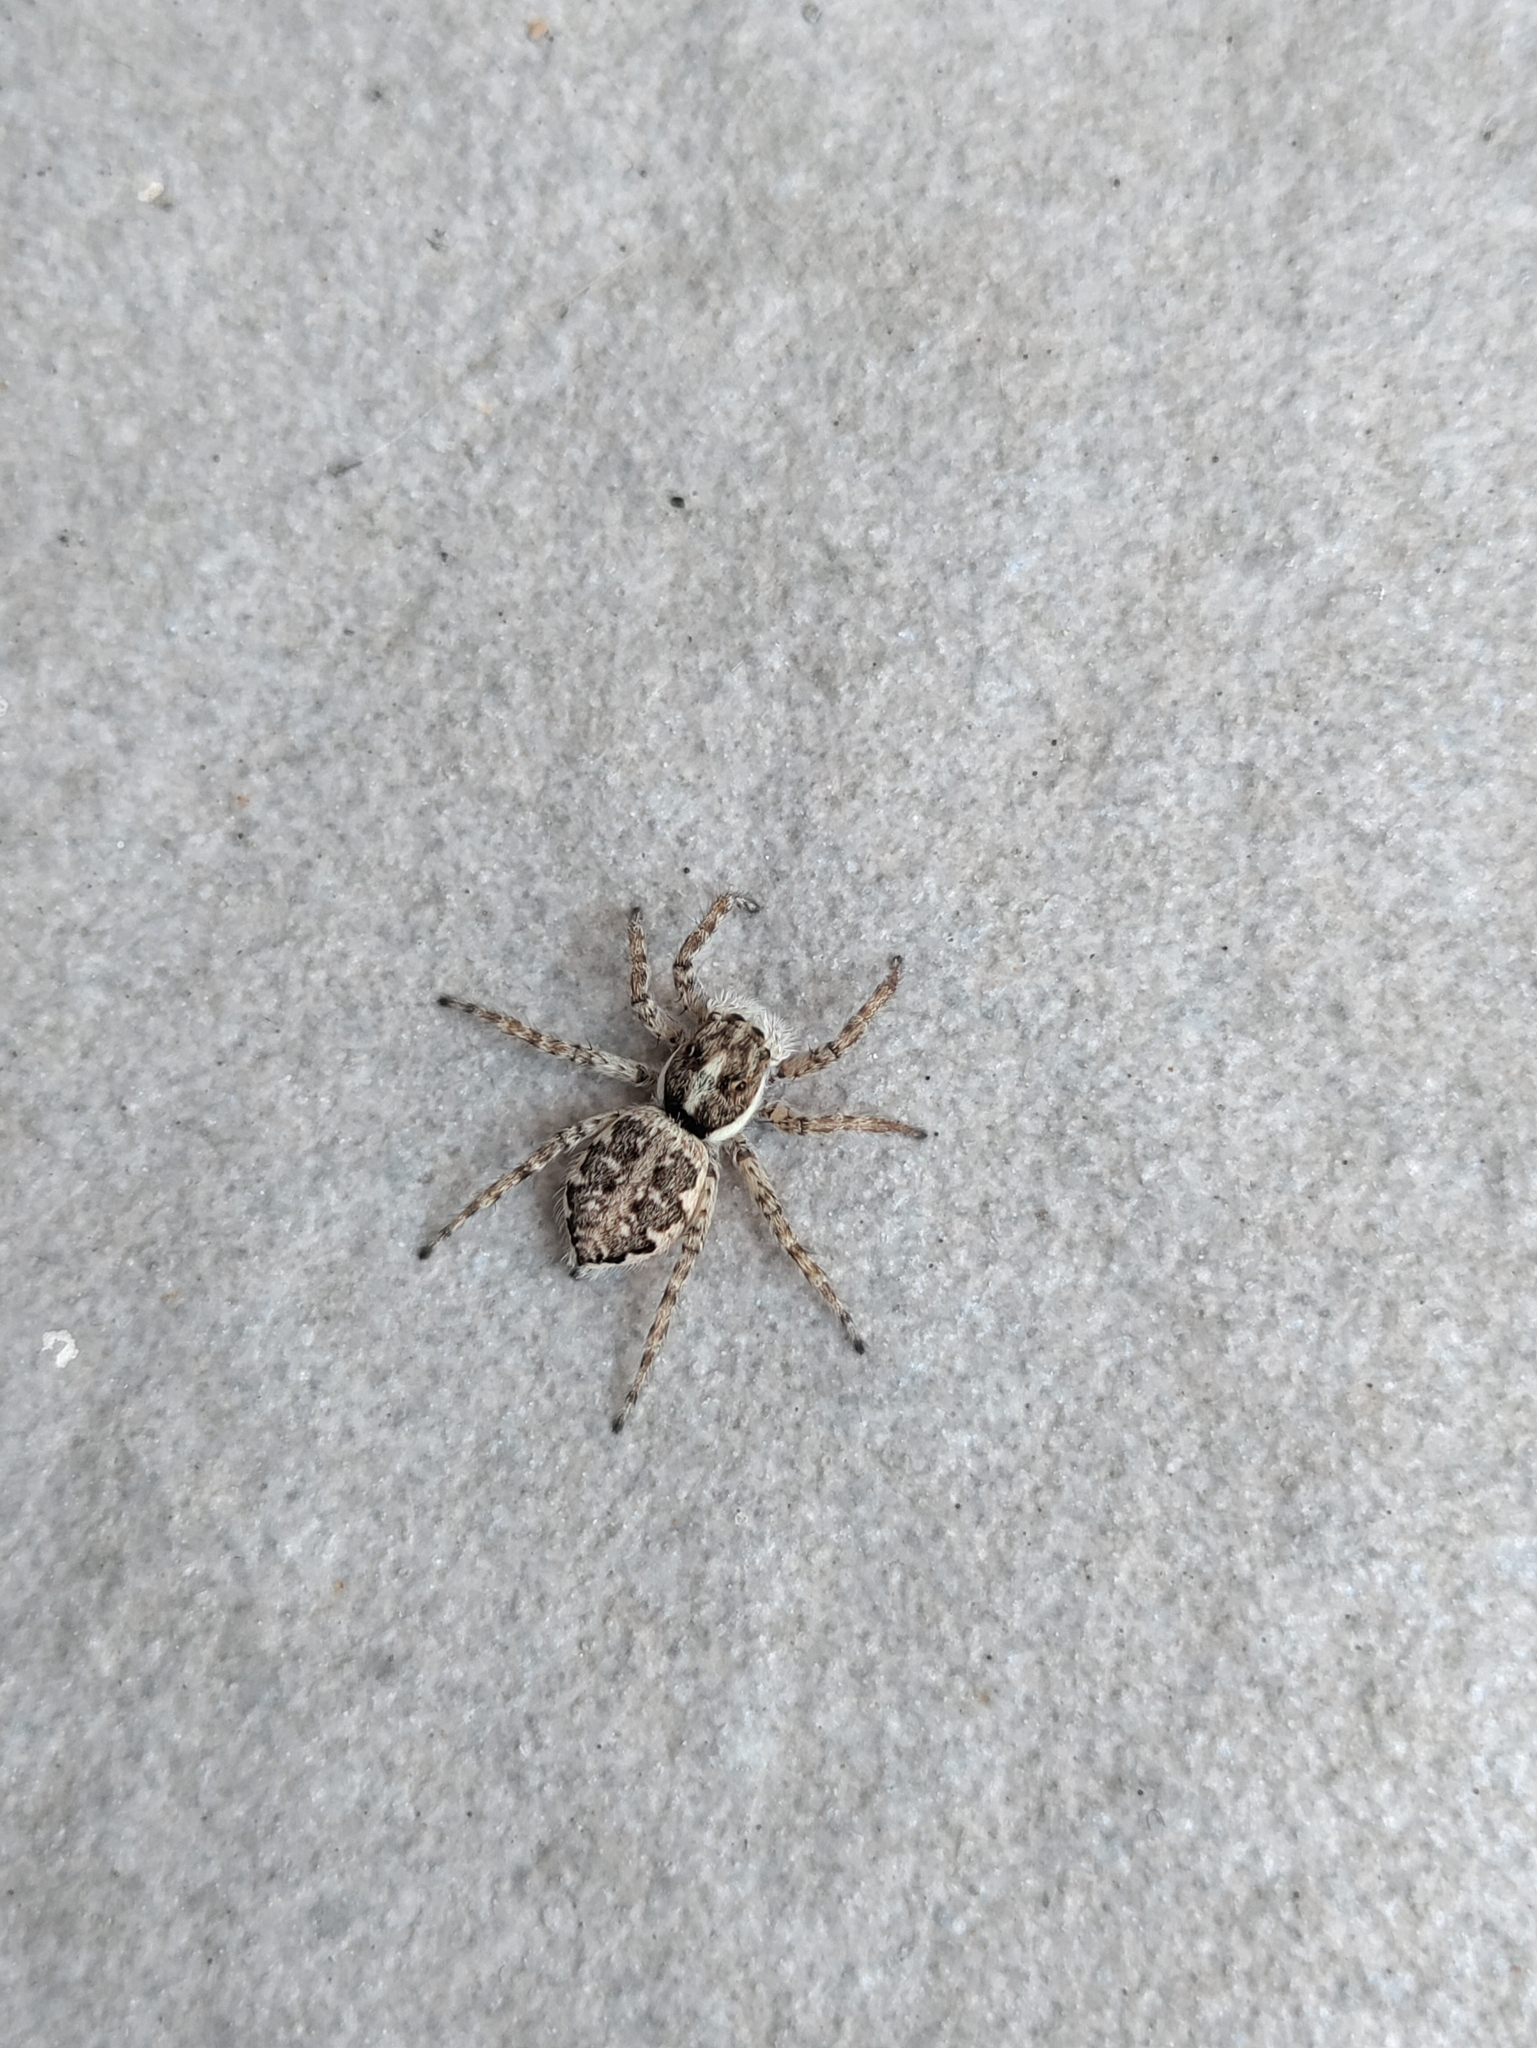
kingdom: Animalia
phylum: Arthropoda
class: Arachnida
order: Araneae
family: Salticidae
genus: Menemerus
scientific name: Menemerus semilimbatus
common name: Jumping spider
